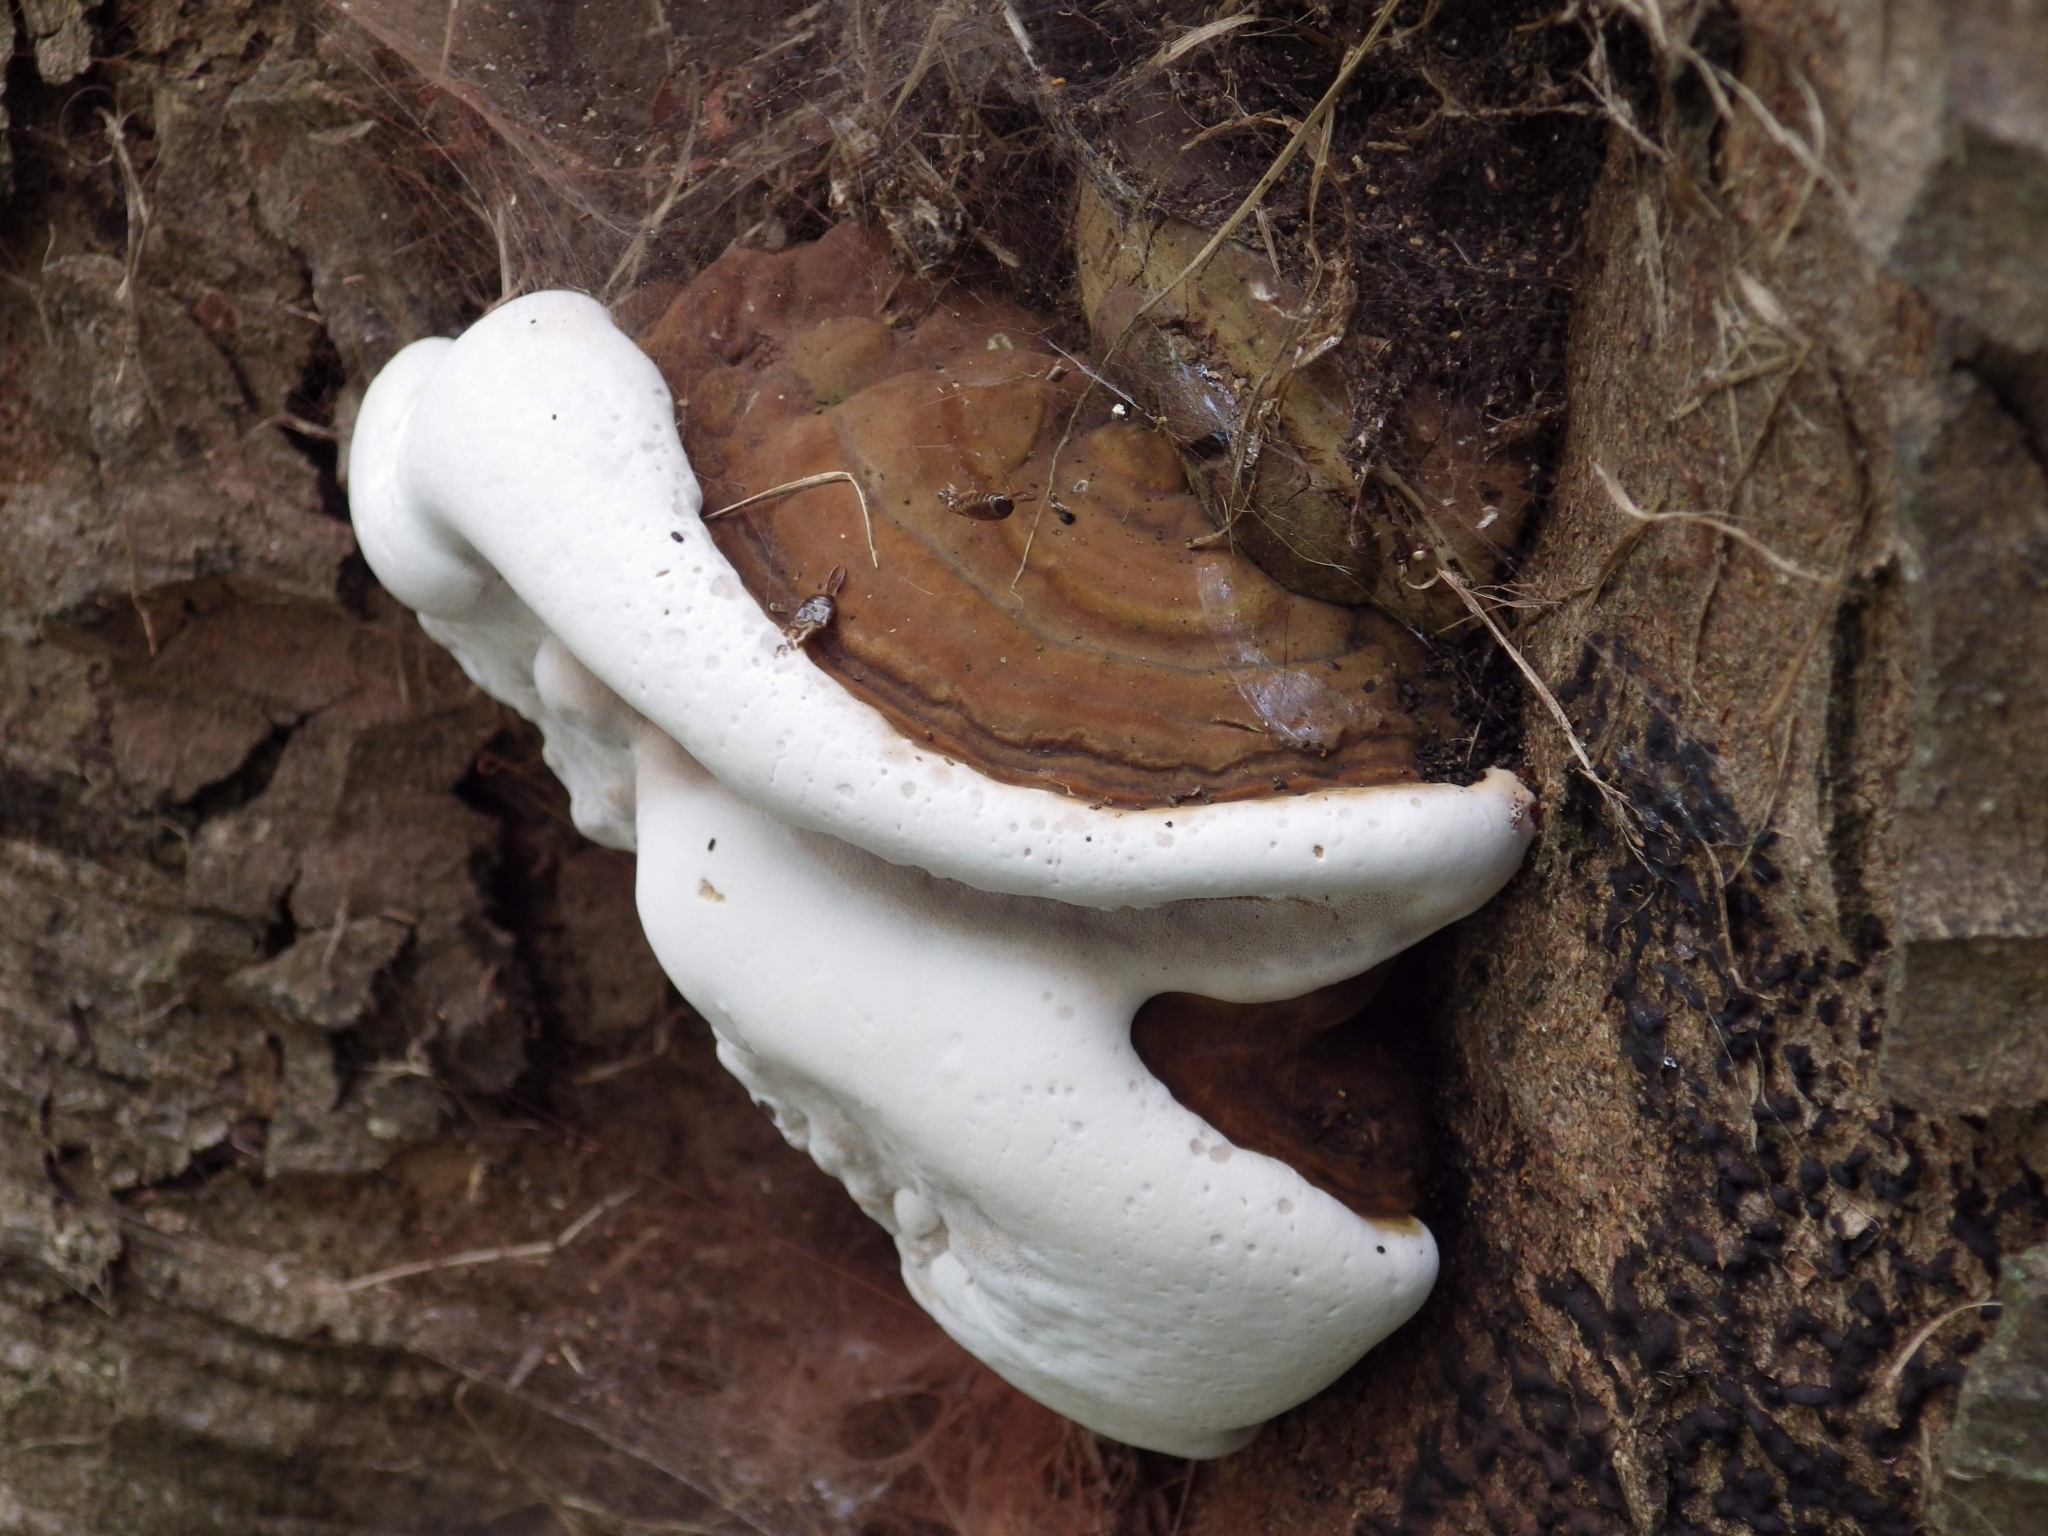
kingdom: Fungi
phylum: Basidiomycota
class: Agaricomycetes
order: Polyporales
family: Polyporaceae
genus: Ganoderma
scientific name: Ganoderma applanatum
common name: Artist's bracket
